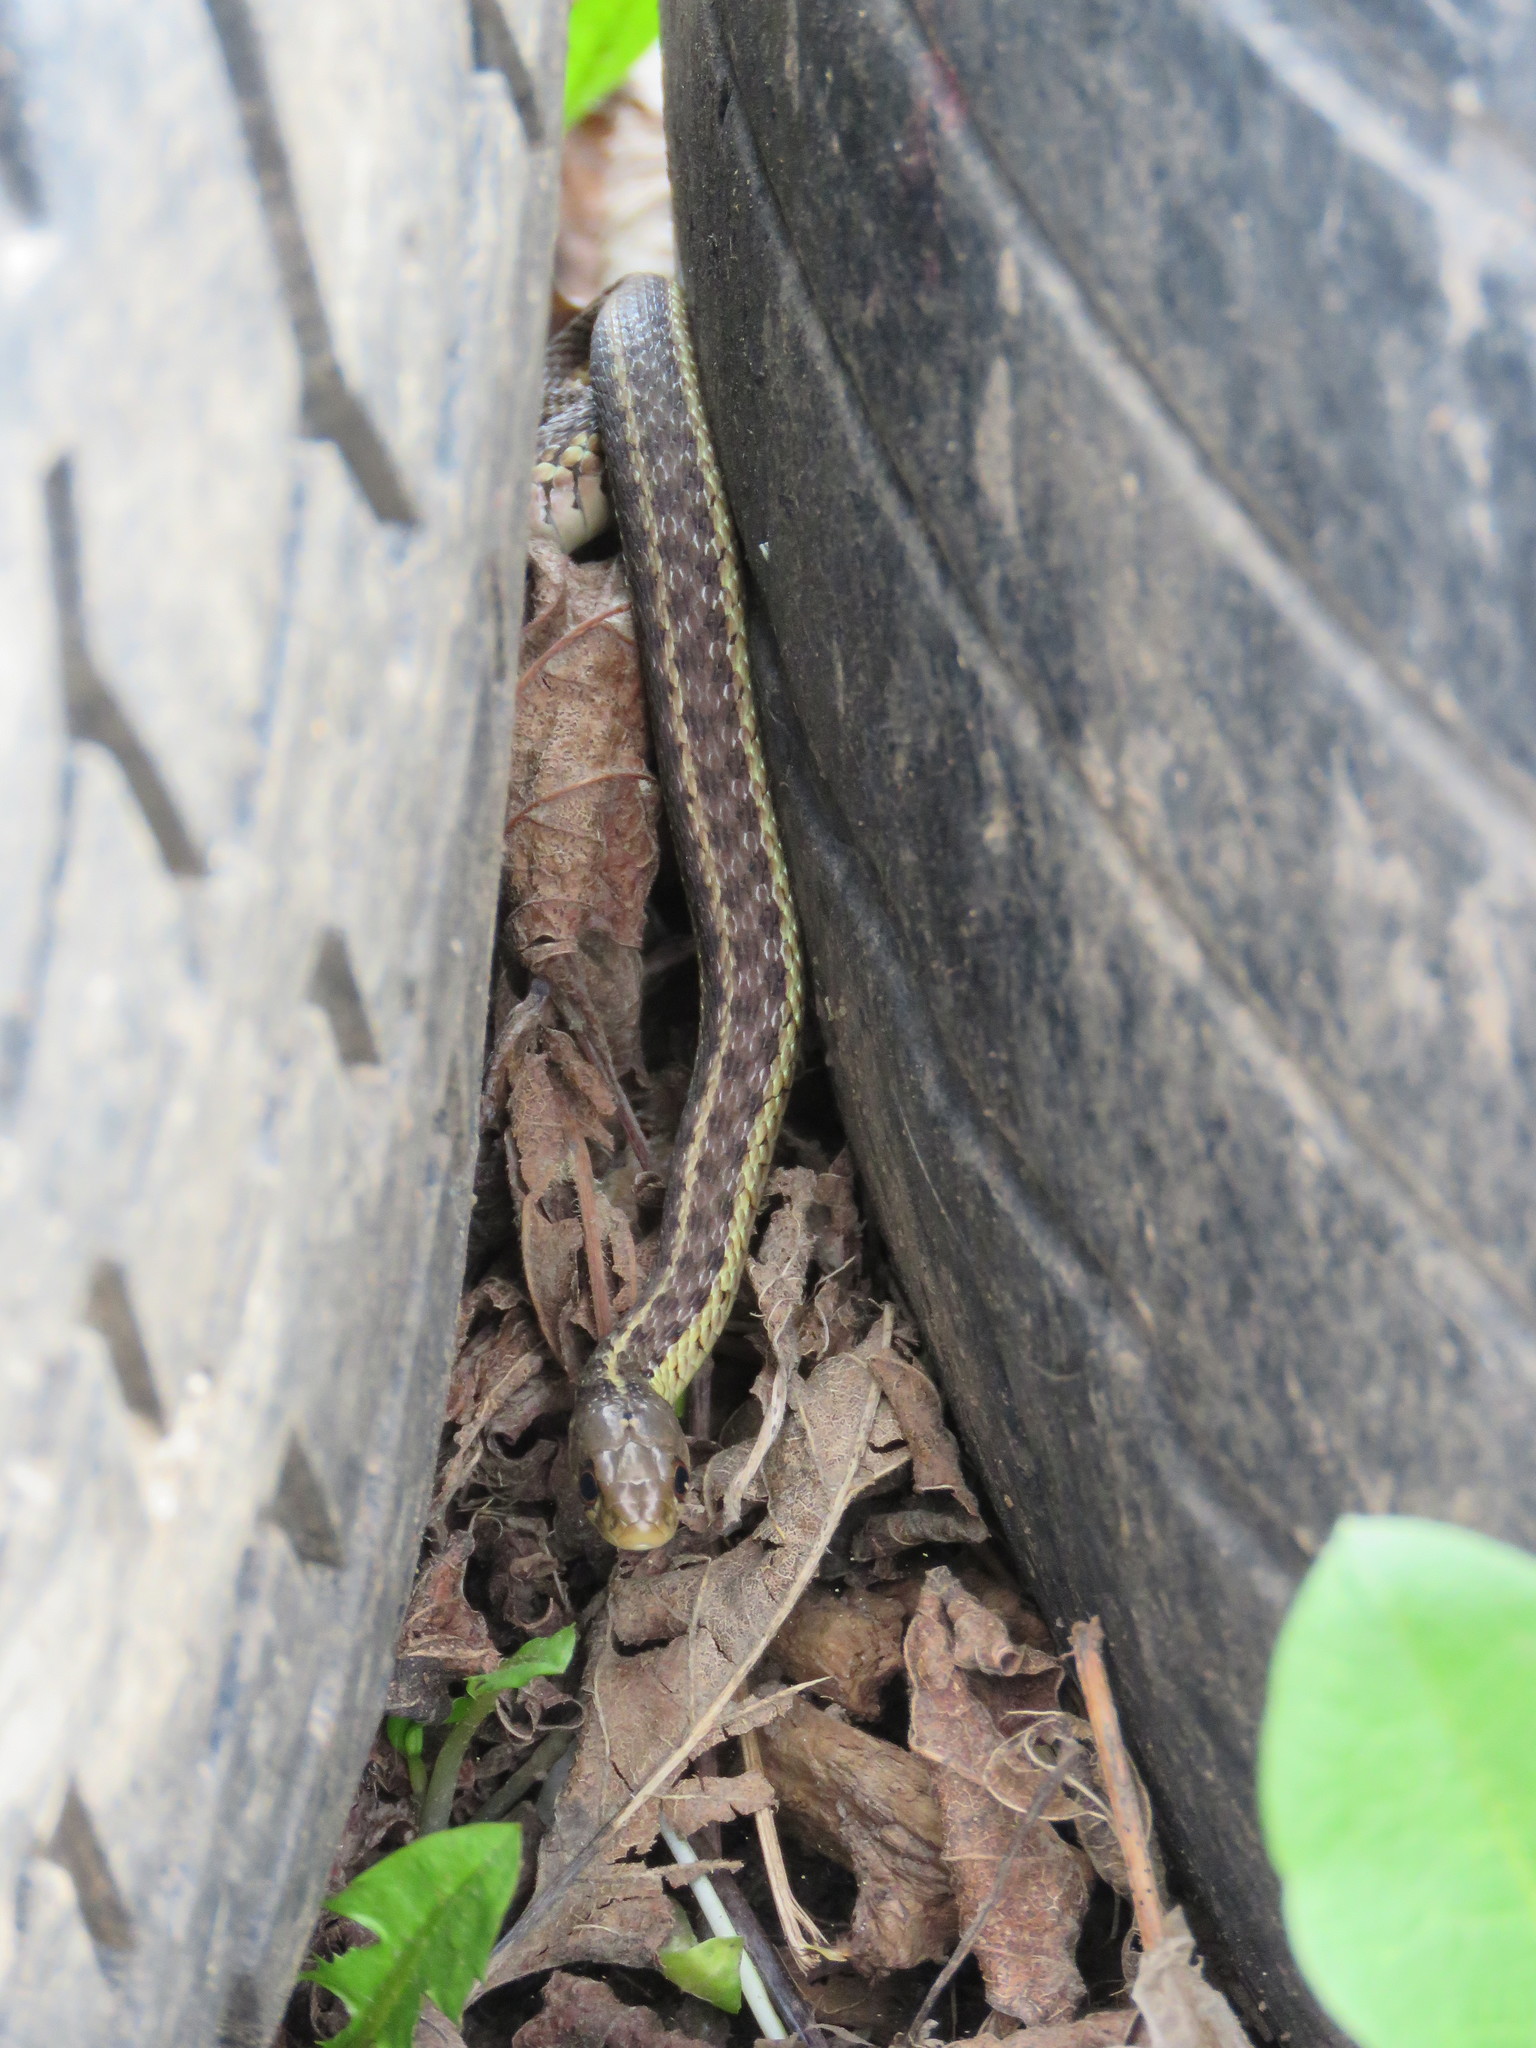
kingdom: Animalia
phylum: Chordata
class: Squamata
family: Colubridae
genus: Thamnophis
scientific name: Thamnophis sirtalis
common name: Common garter snake
